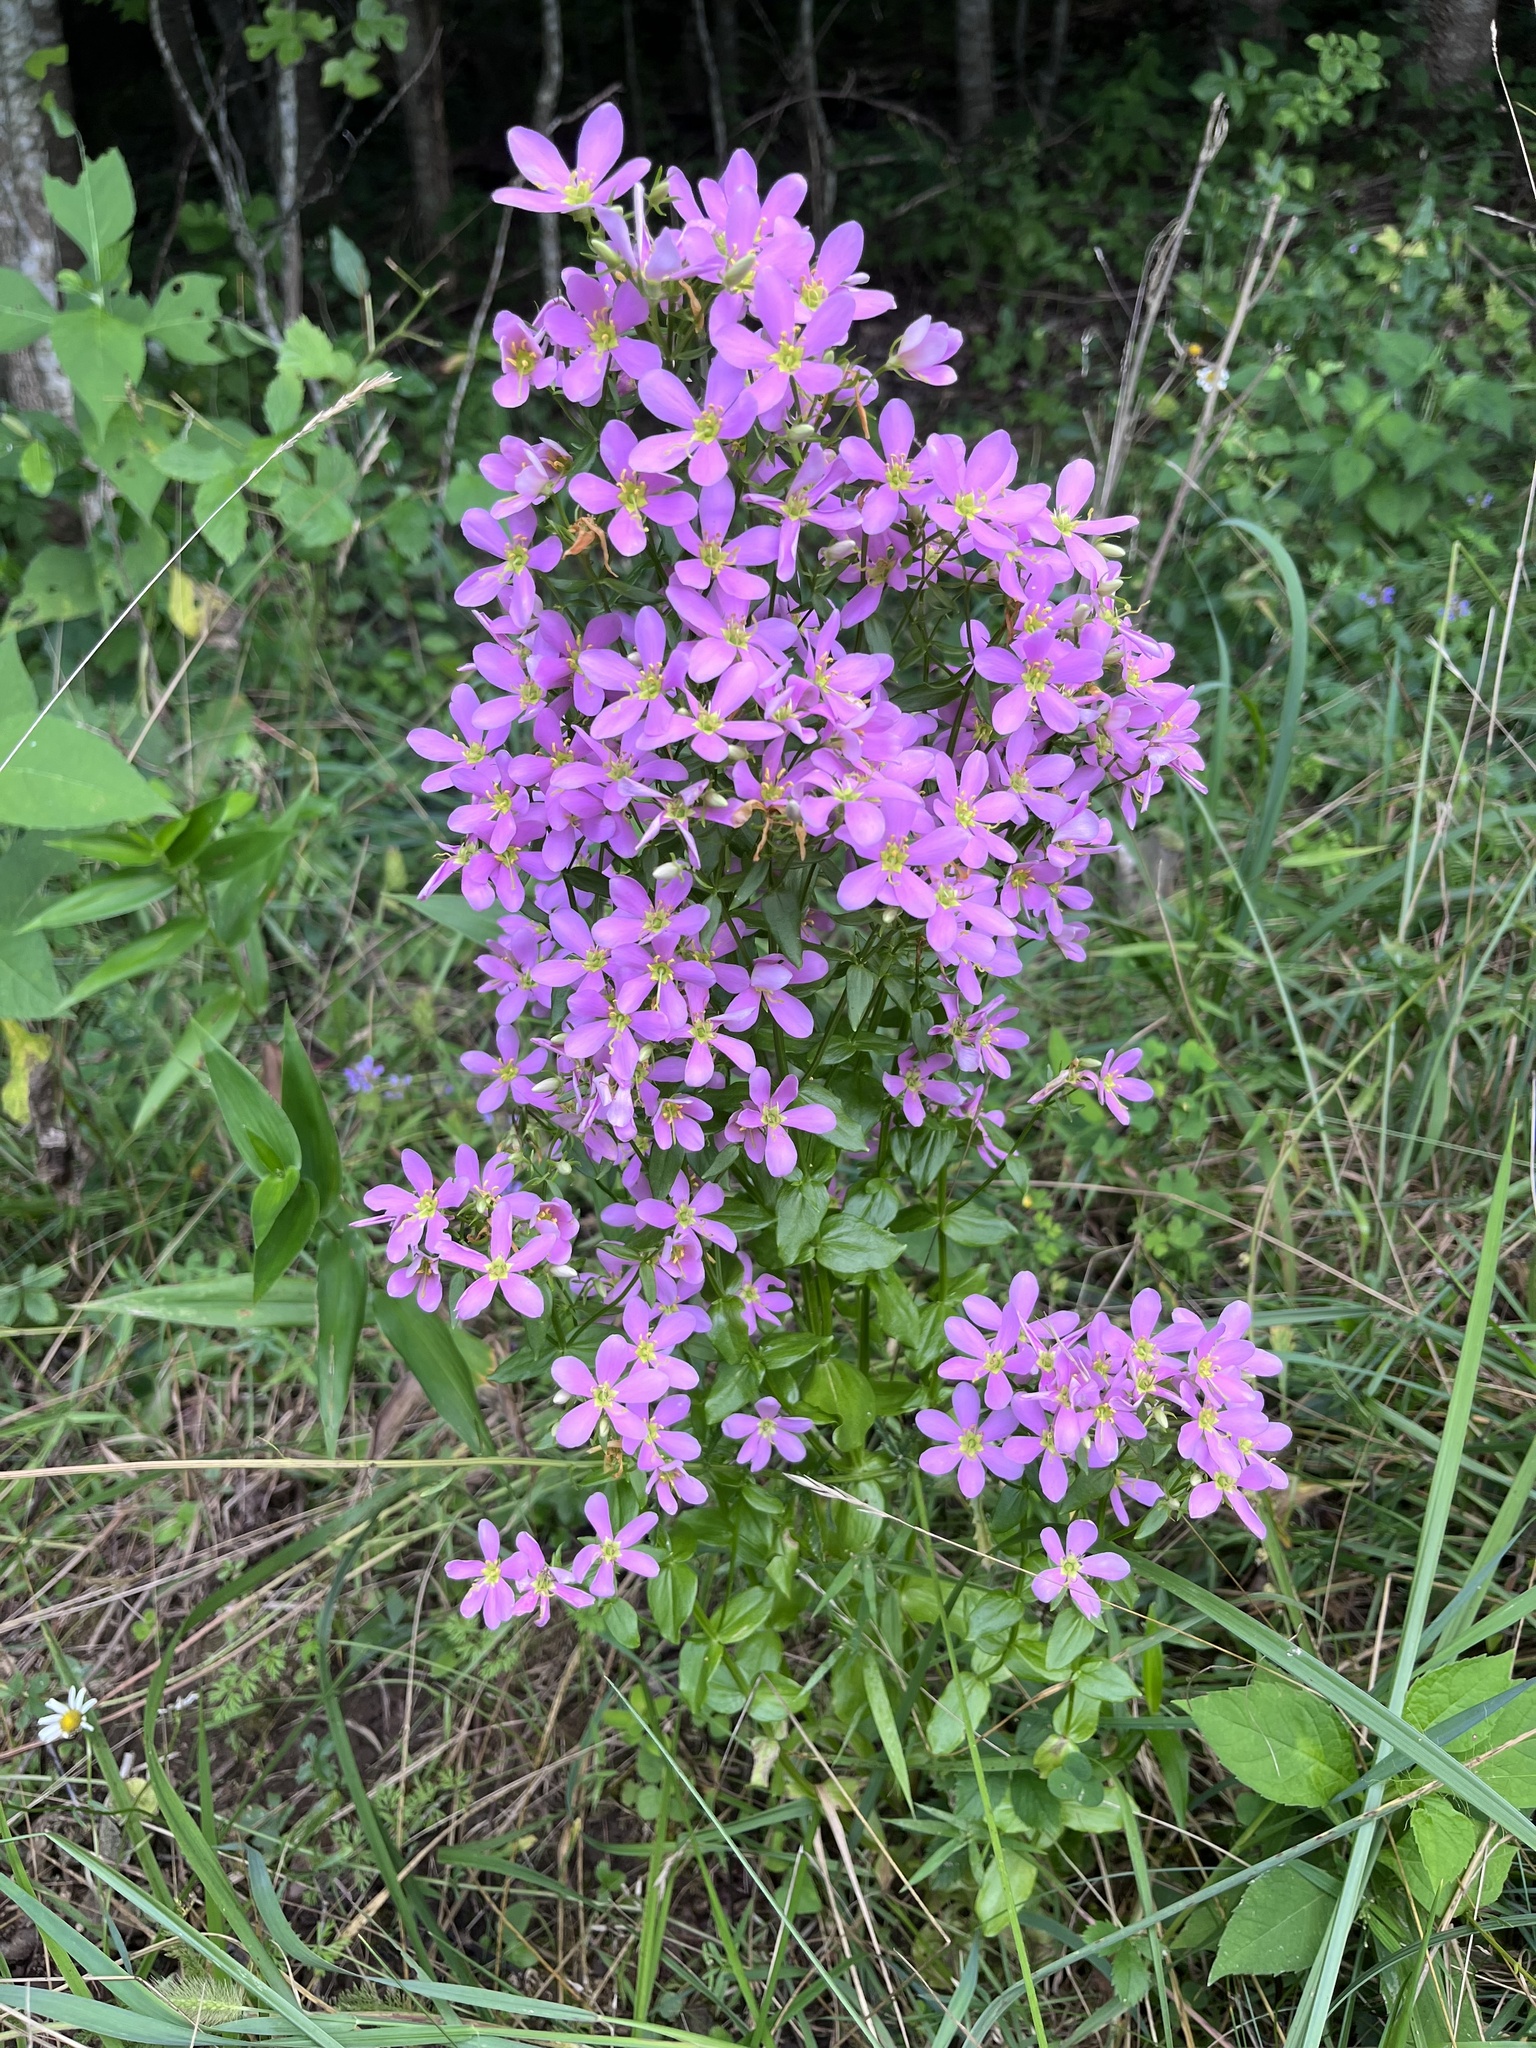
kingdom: Plantae
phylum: Tracheophyta
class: Magnoliopsida
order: Gentianales
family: Gentianaceae
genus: Sabatia
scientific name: Sabatia angularis
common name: Rose-pink
